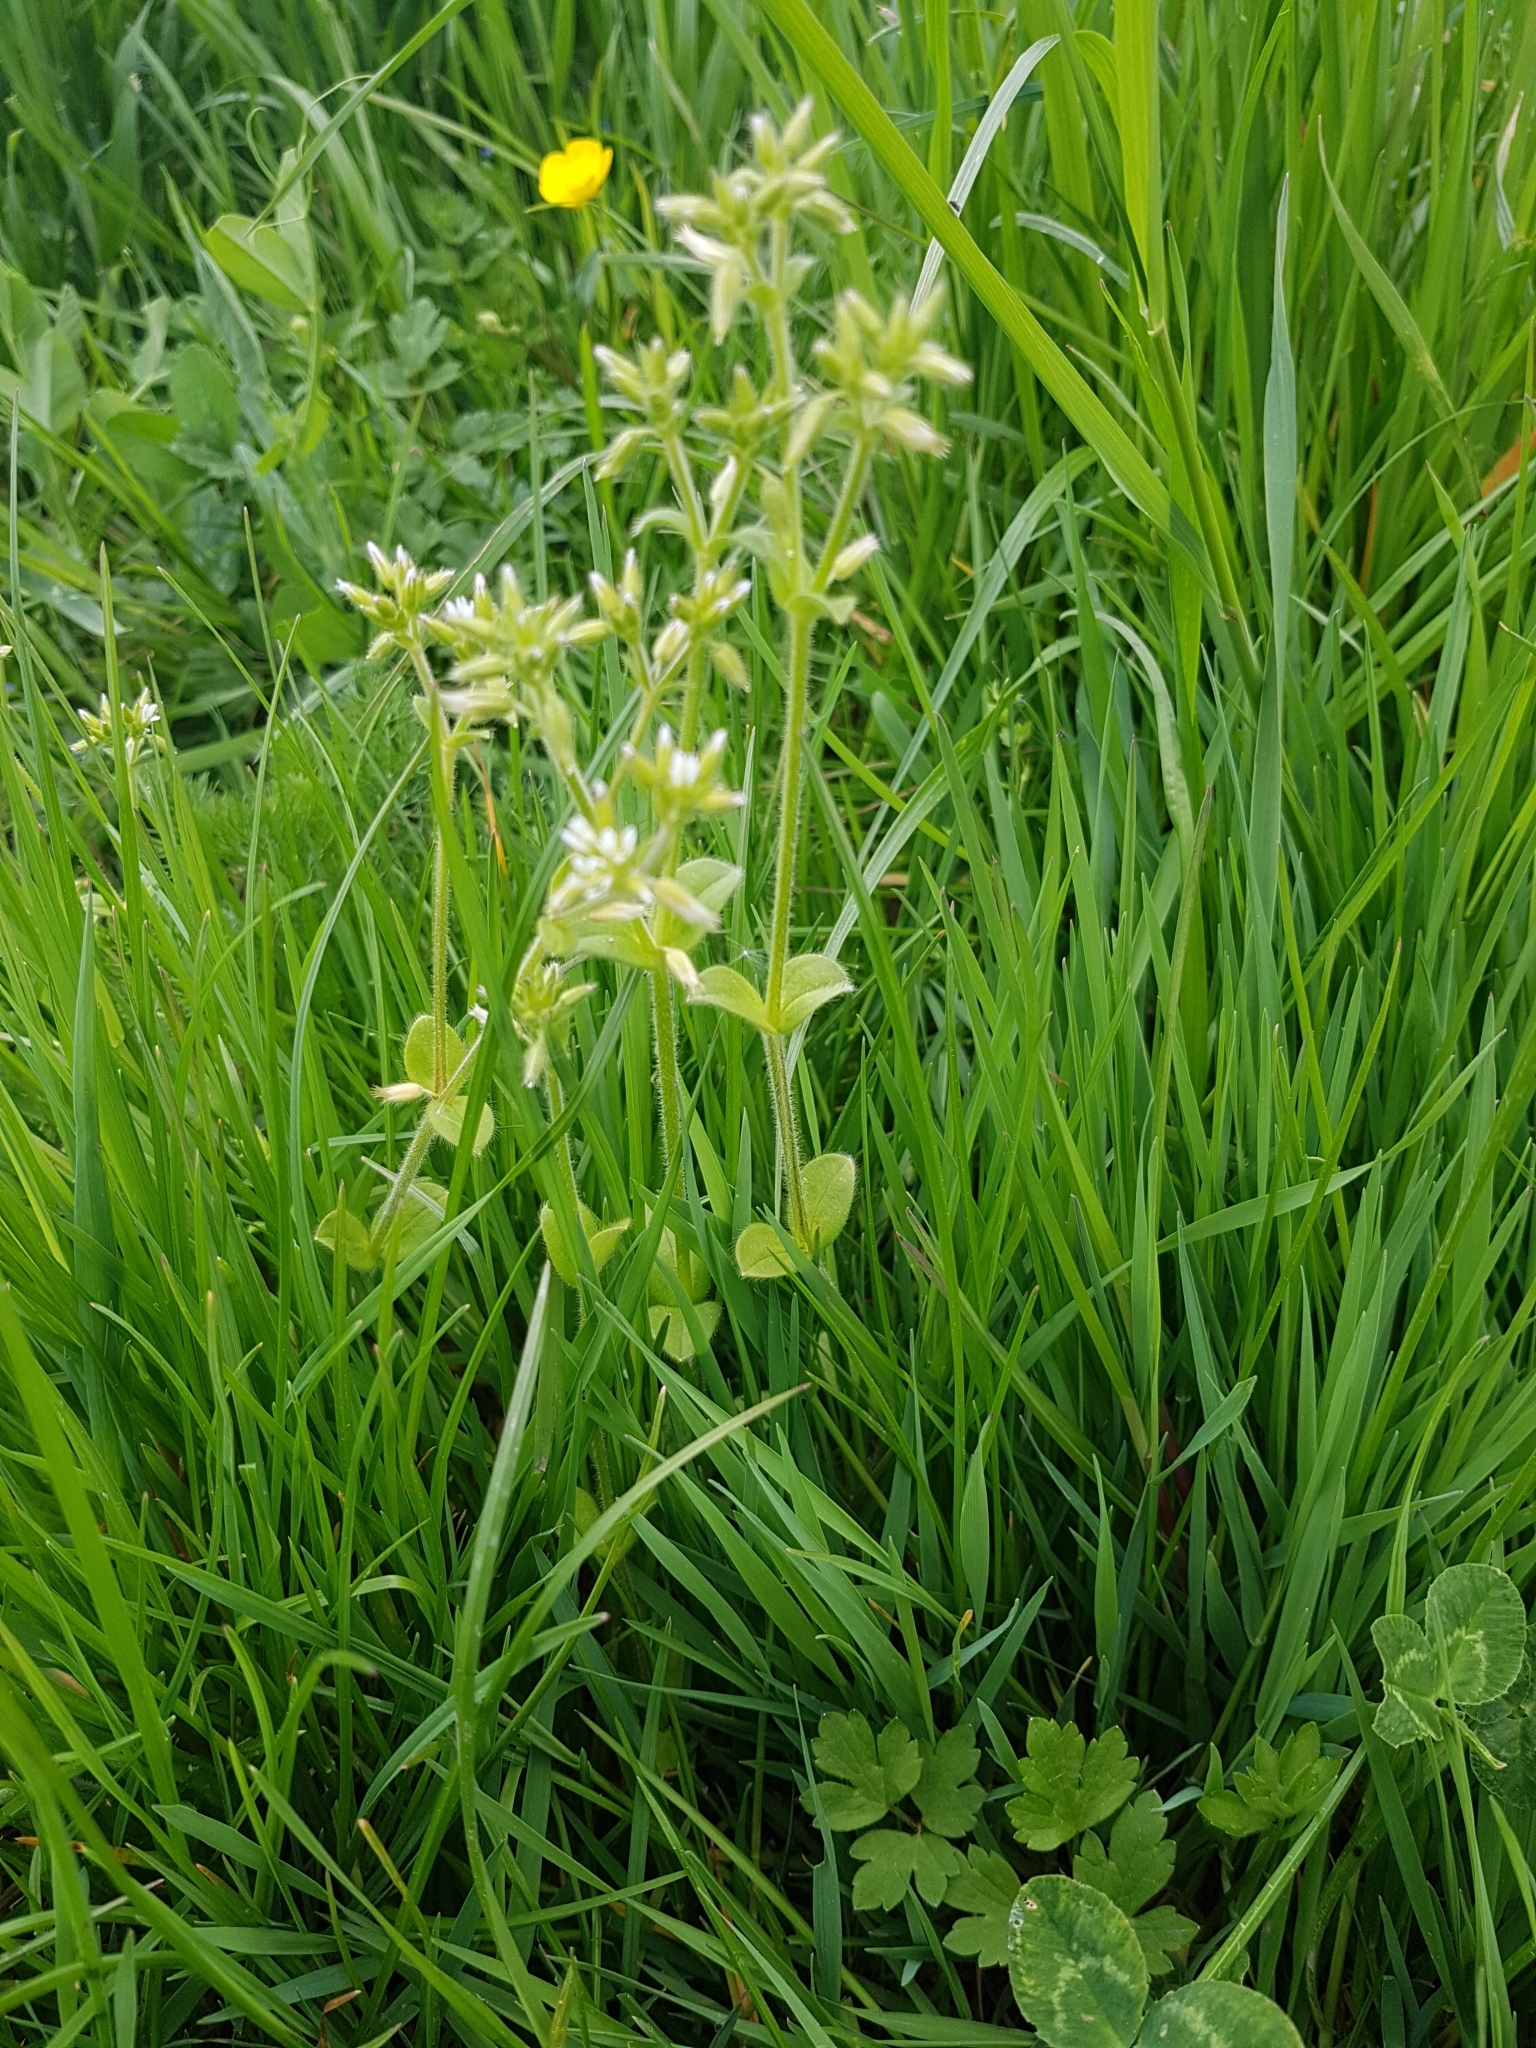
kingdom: Plantae
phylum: Tracheophyta
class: Magnoliopsida
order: Caryophyllales
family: Caryophyllaceae
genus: Cerastium
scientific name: Cerastium glomeratum
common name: Sticky chickweed
